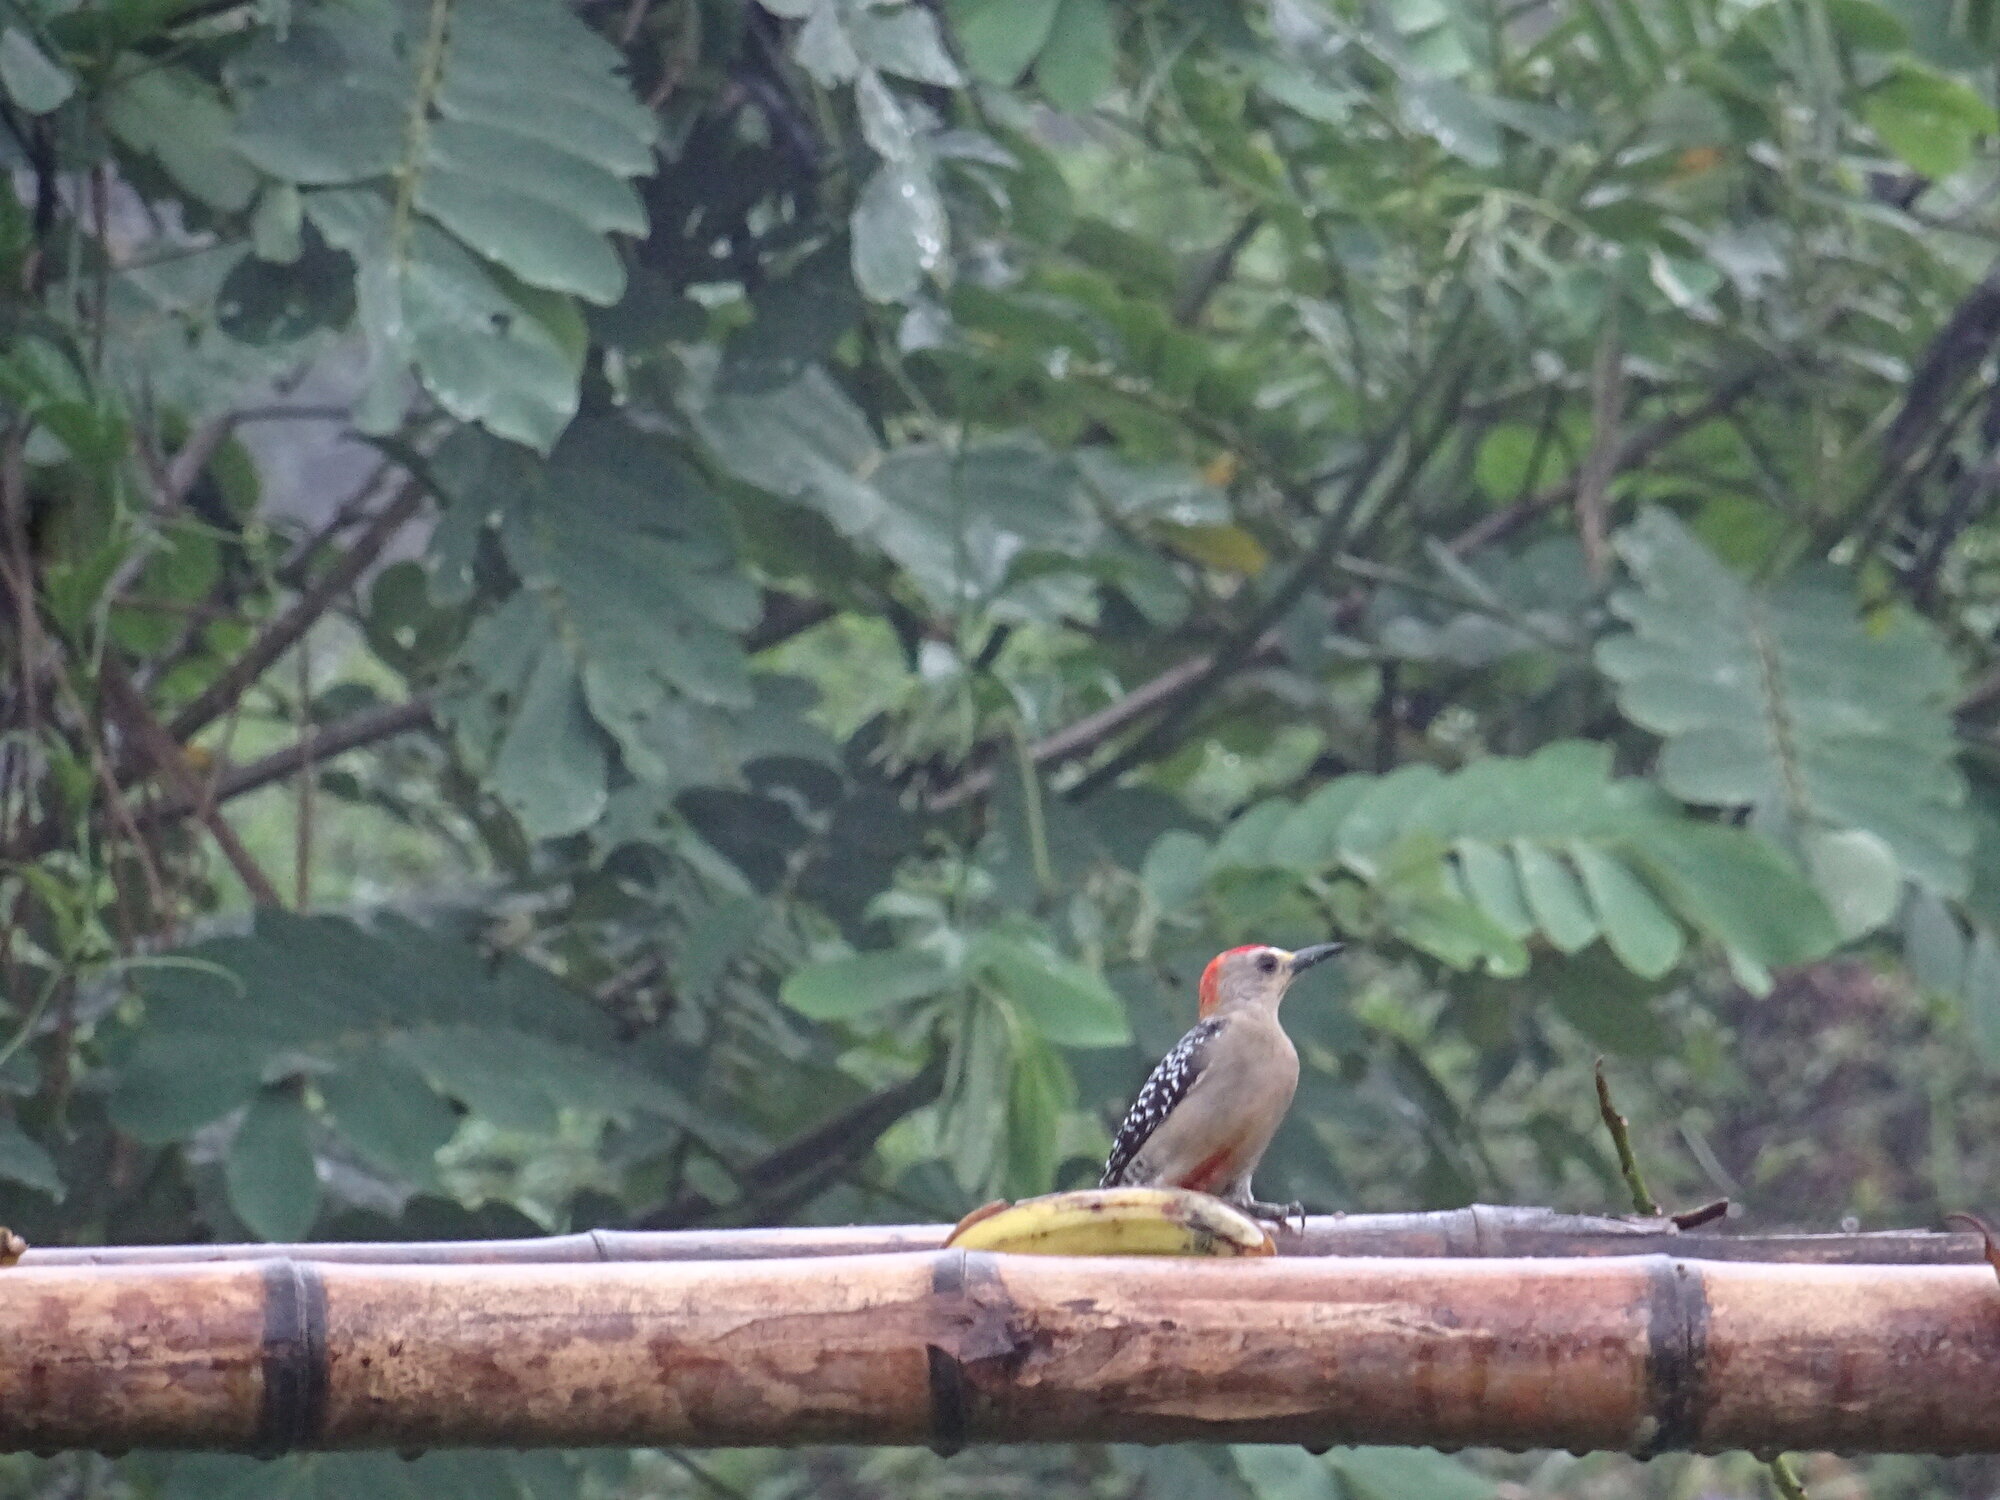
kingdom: Animalia
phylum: Chordata
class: Aves
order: Piciformes
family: Picidae
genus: Melanerpes
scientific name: Melanerpes rubricapillus
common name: Red-crowned woodpecker
